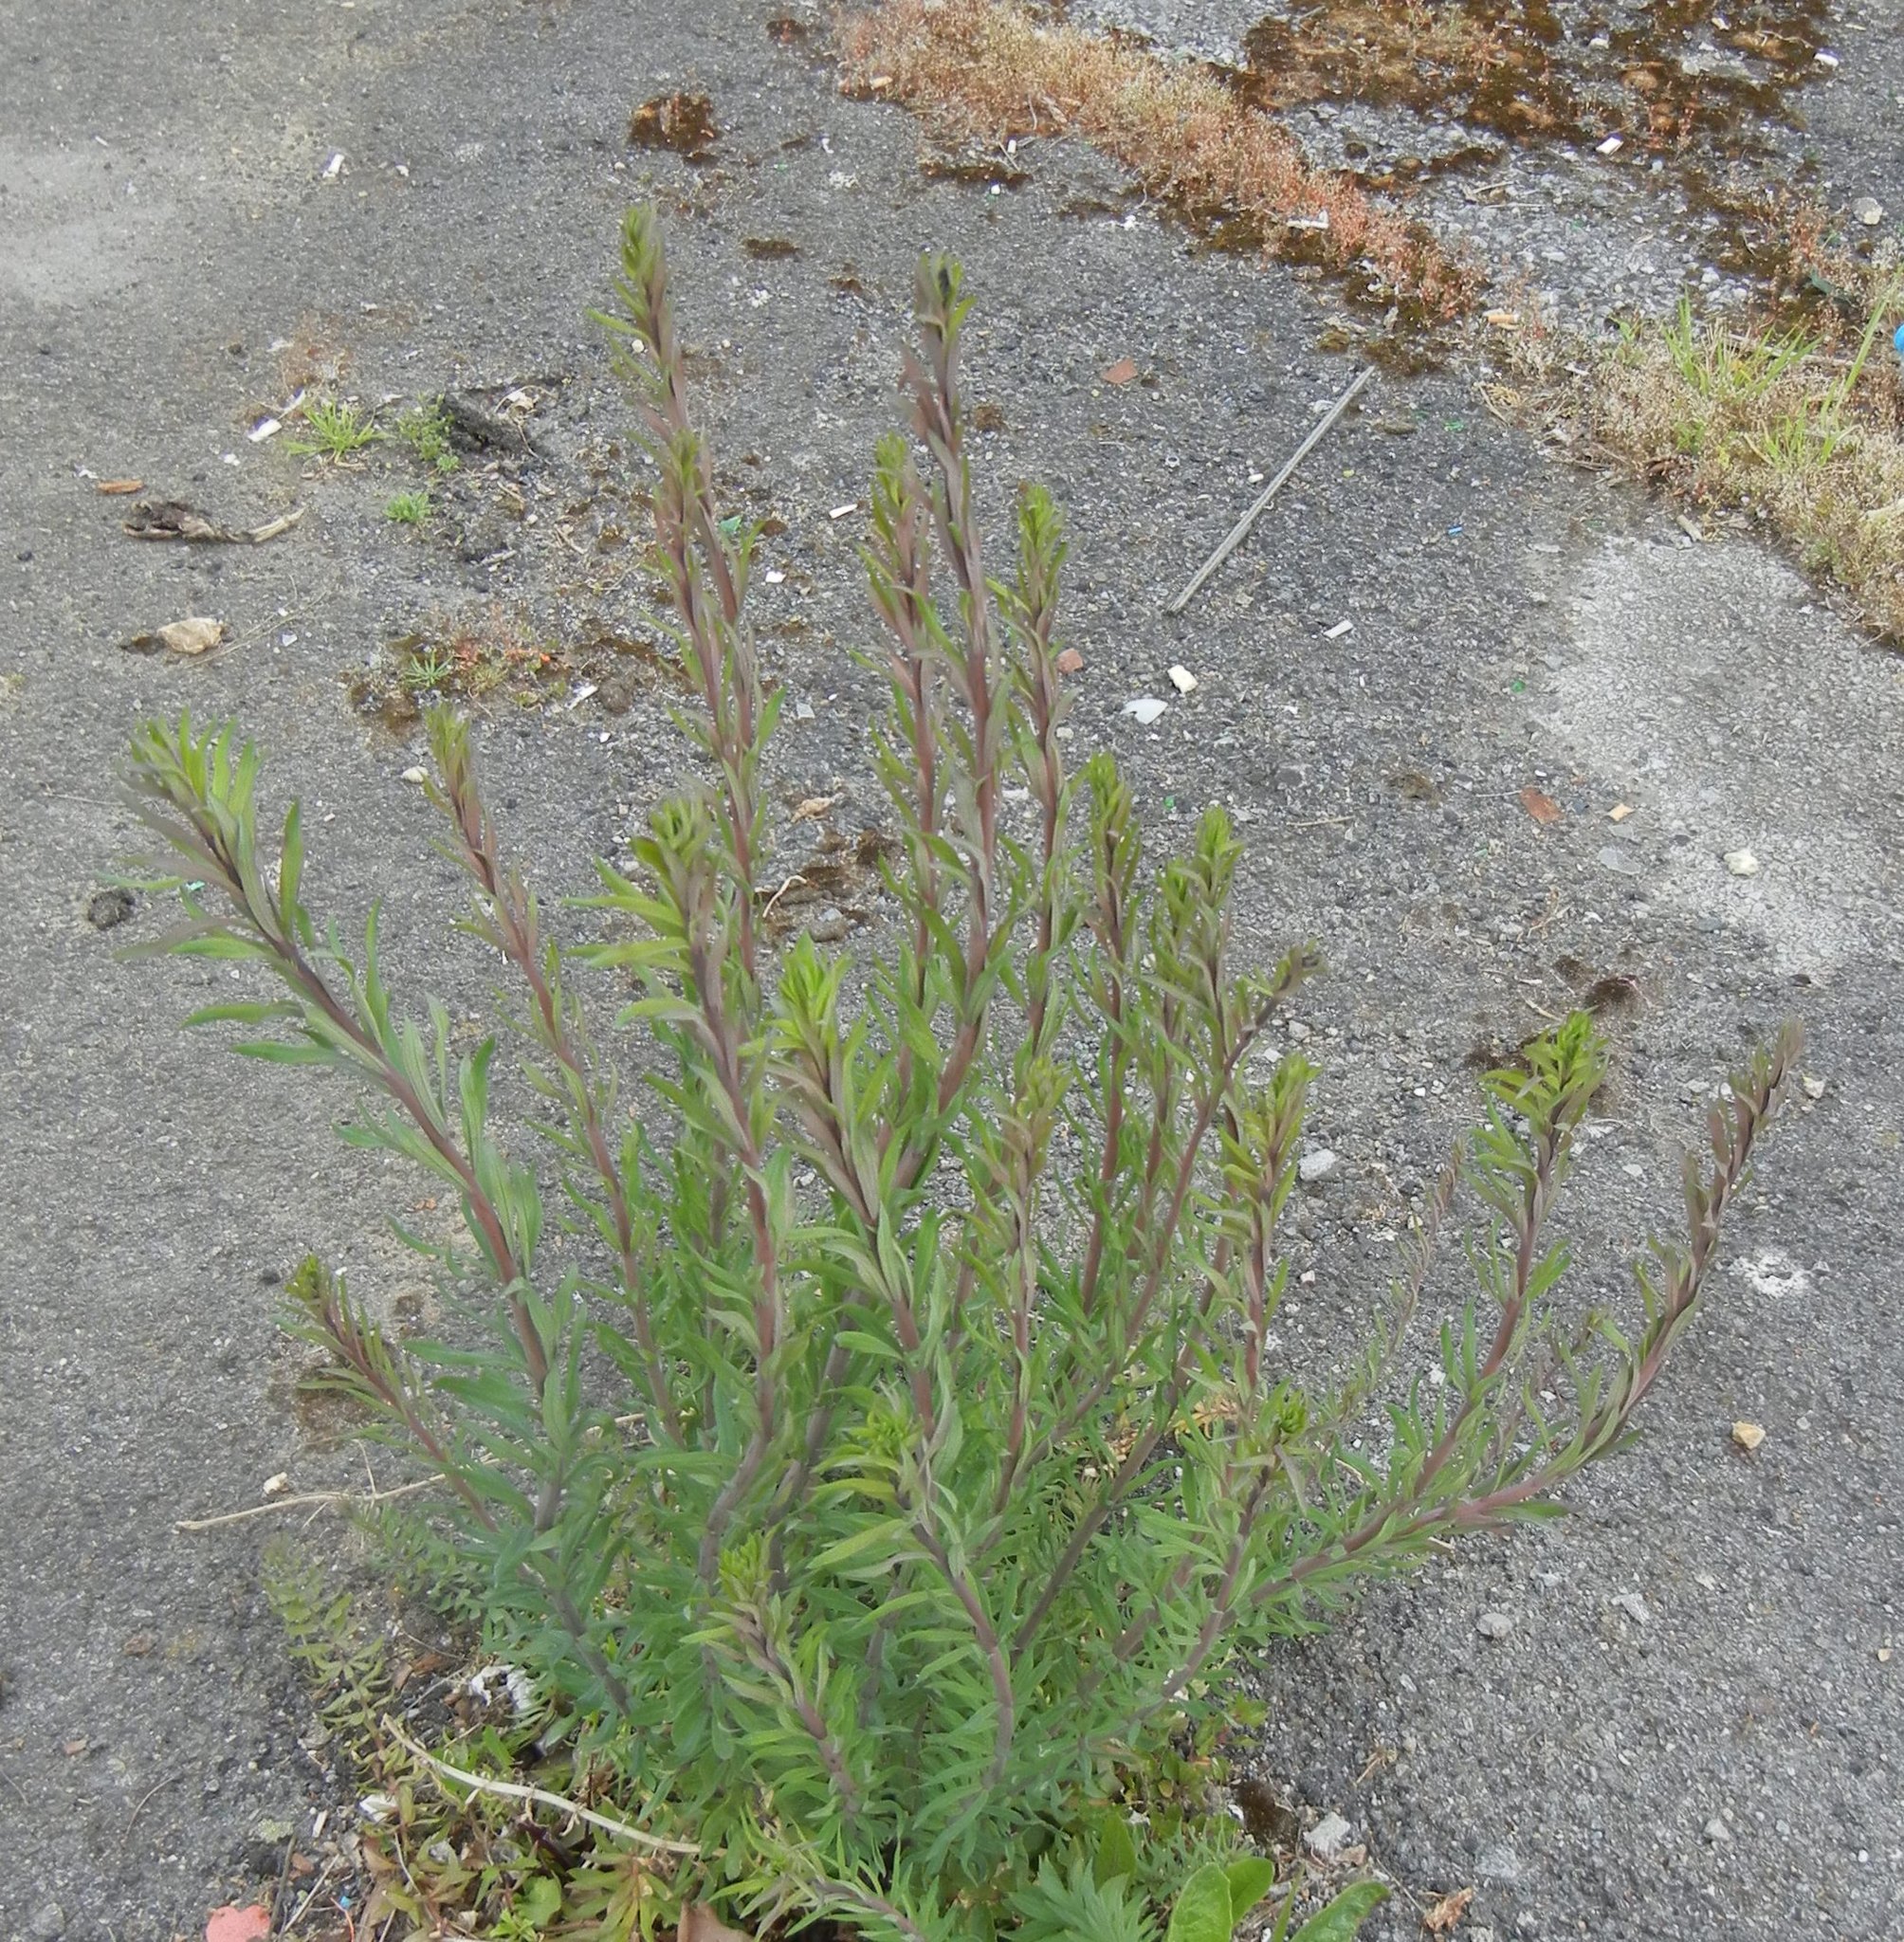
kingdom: Plantae
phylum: Tracheophyta
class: Magnoliopsida
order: Lamiales
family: Plantaginaceae
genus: Linaria
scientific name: Linaria purpurea
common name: Purple toadflax
